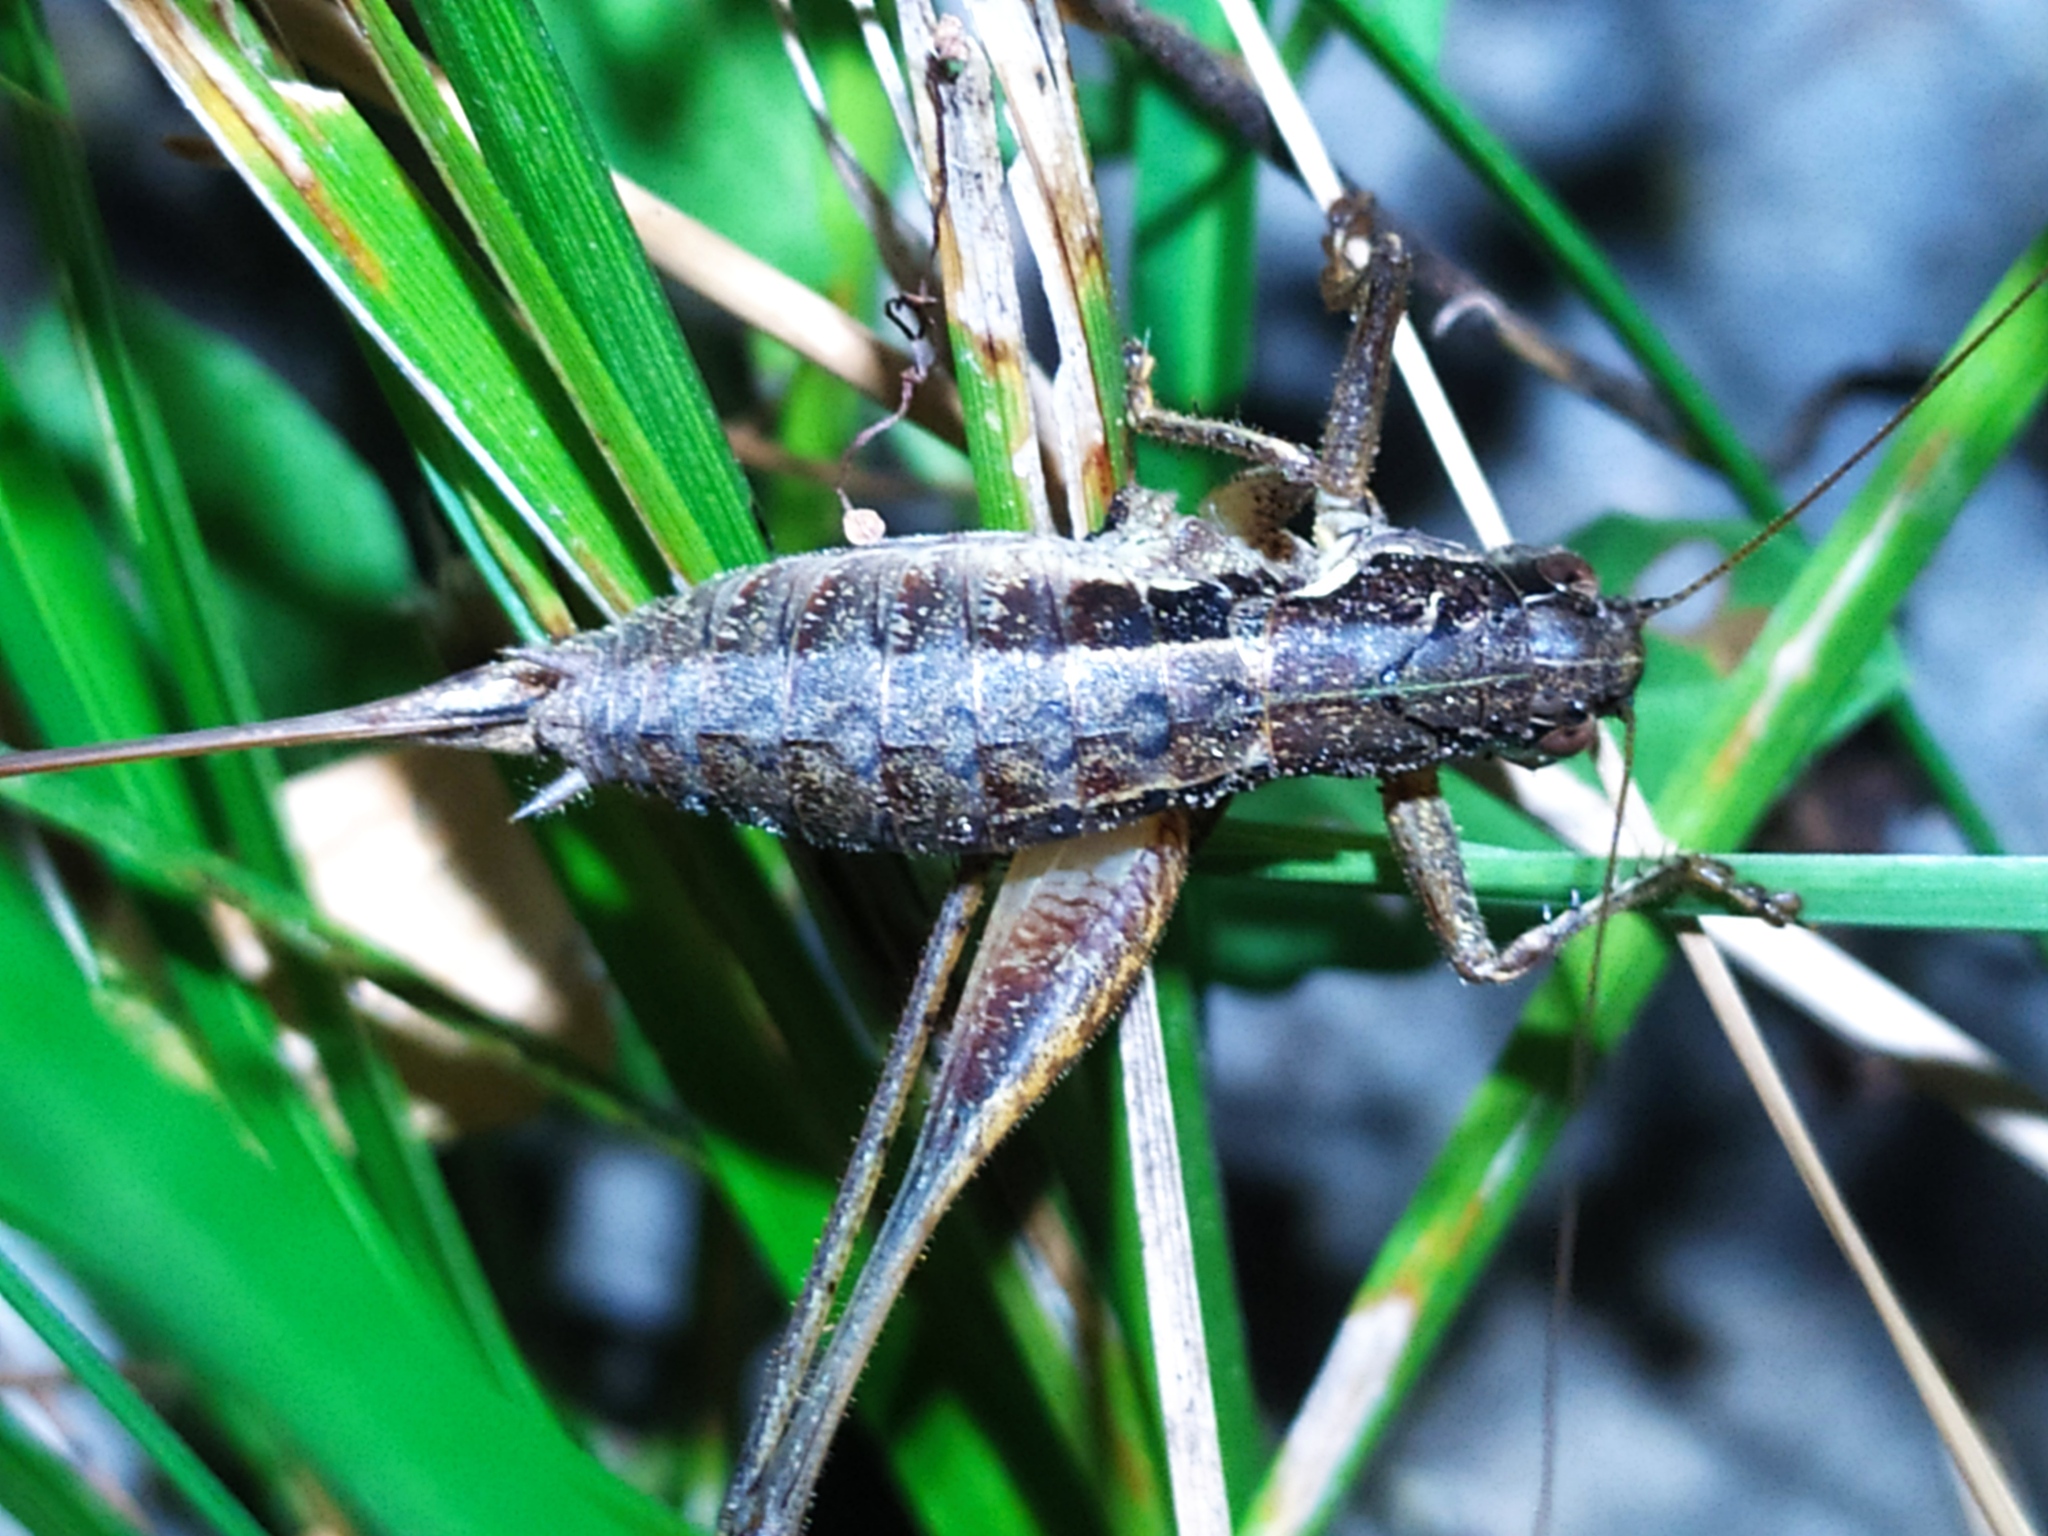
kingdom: Animalia
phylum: Arthropoda
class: Insecta
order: Orthoptera
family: Tettigoniidae
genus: Pachytrachis
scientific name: Pachytrachis gracilis
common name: Graceful bush-cricket
